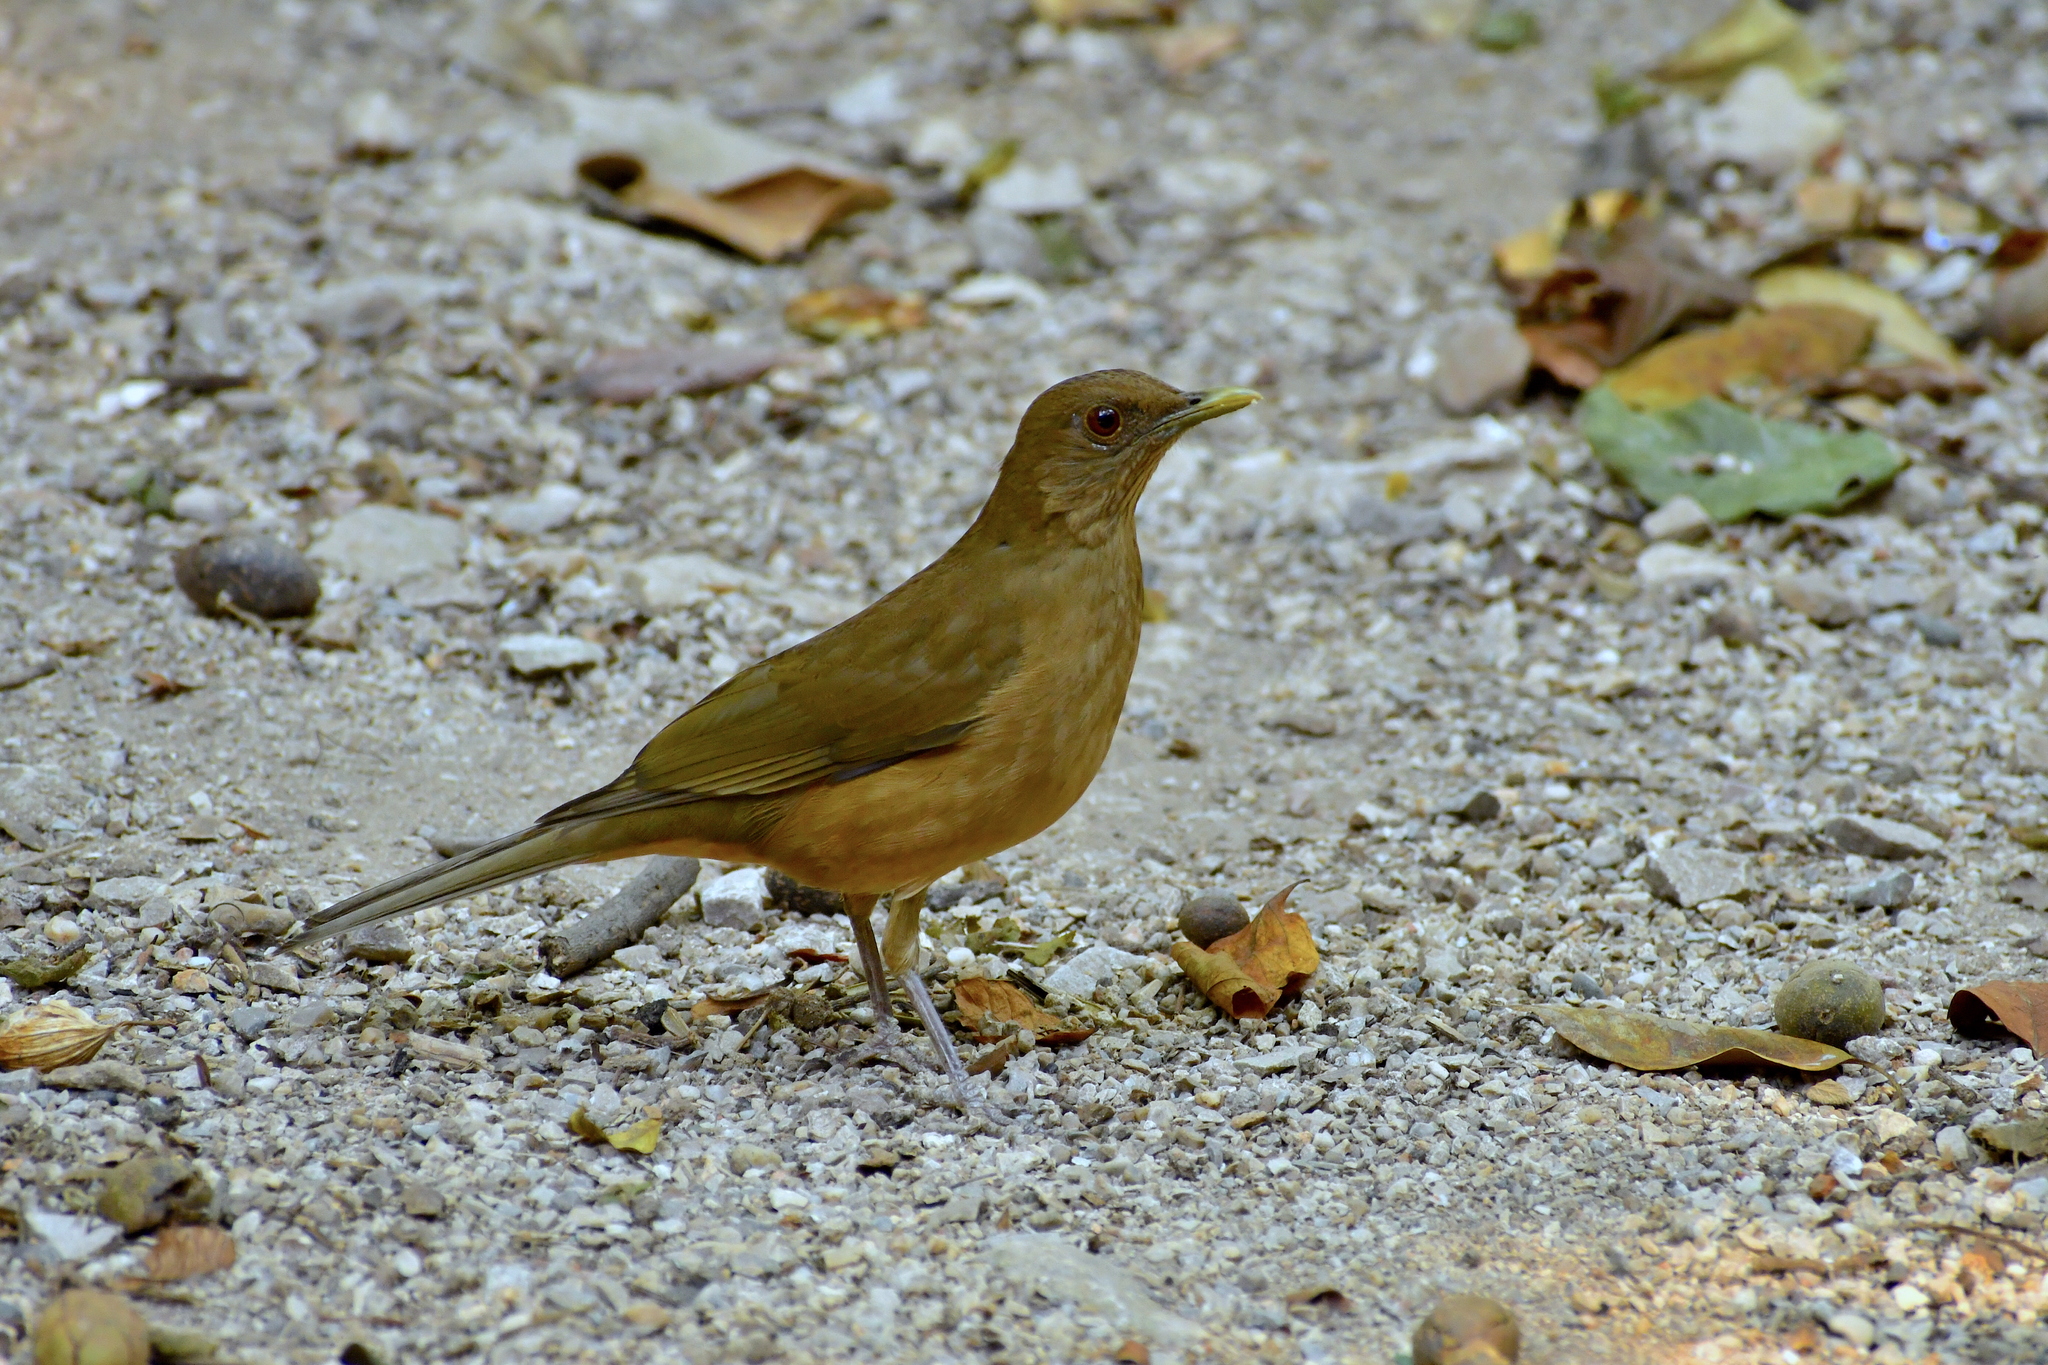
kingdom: Animalia
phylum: Chordata
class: Aves
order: Passeriformes
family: Turdidae
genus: Turdus
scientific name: Turdus grayi
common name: Clay-colored thrush
